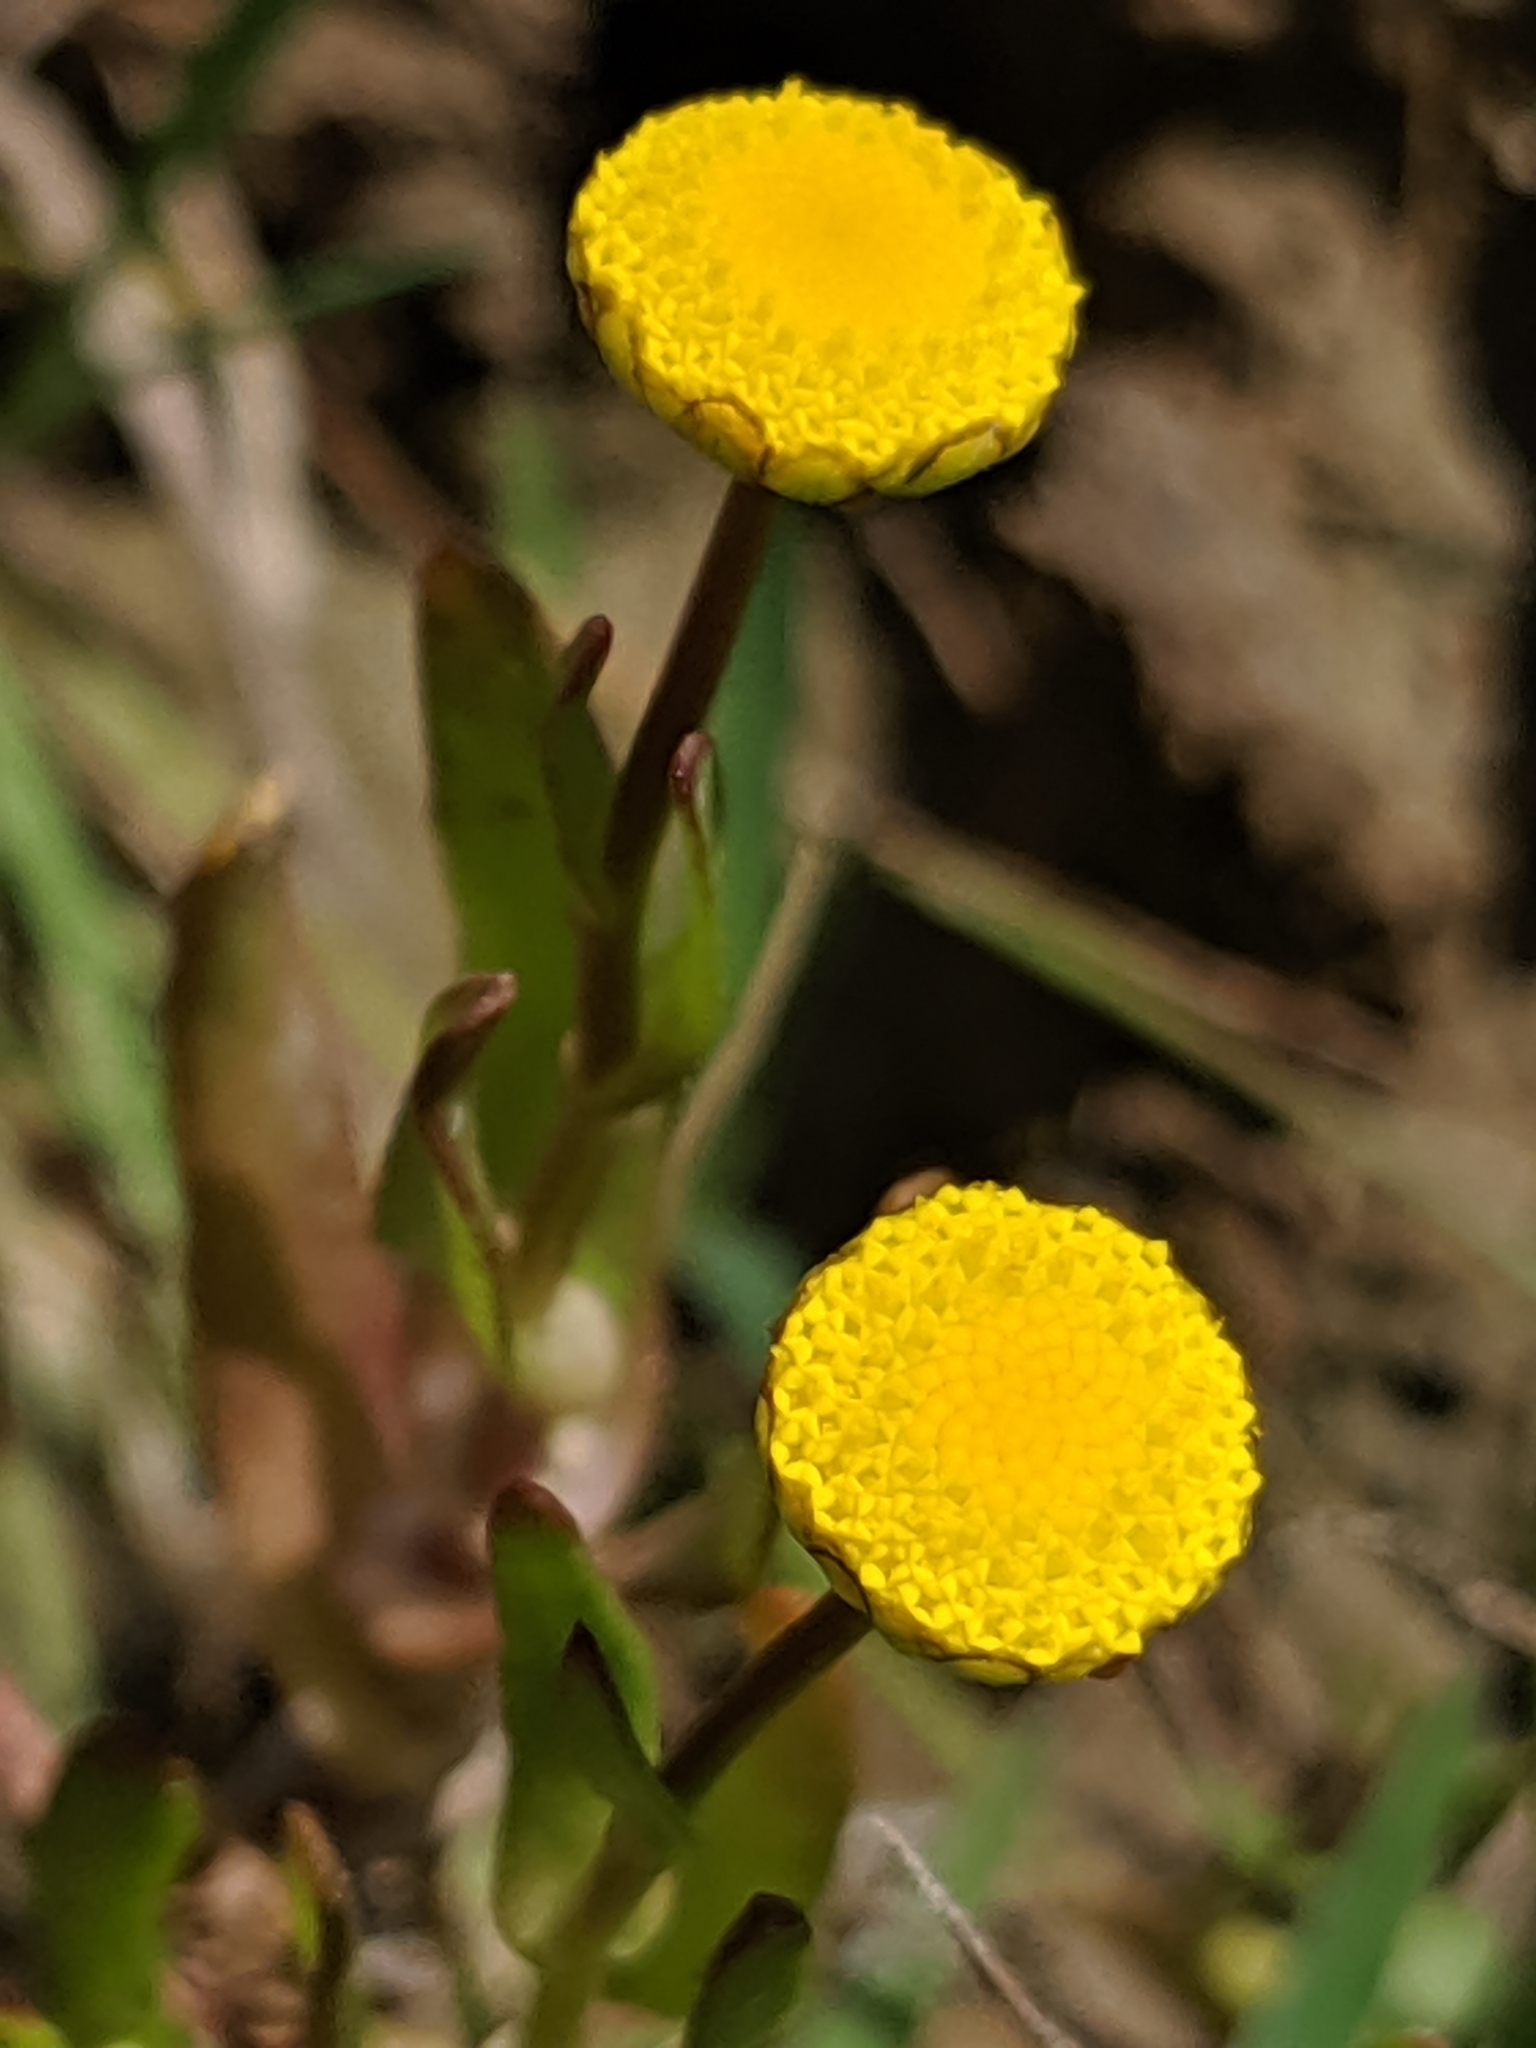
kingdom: Plantae
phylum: Tracheophyta
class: Magnoliopsida
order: Asterales
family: Asteraceae
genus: Cotula
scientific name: Cotula coronopifolia
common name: Buttonweed
